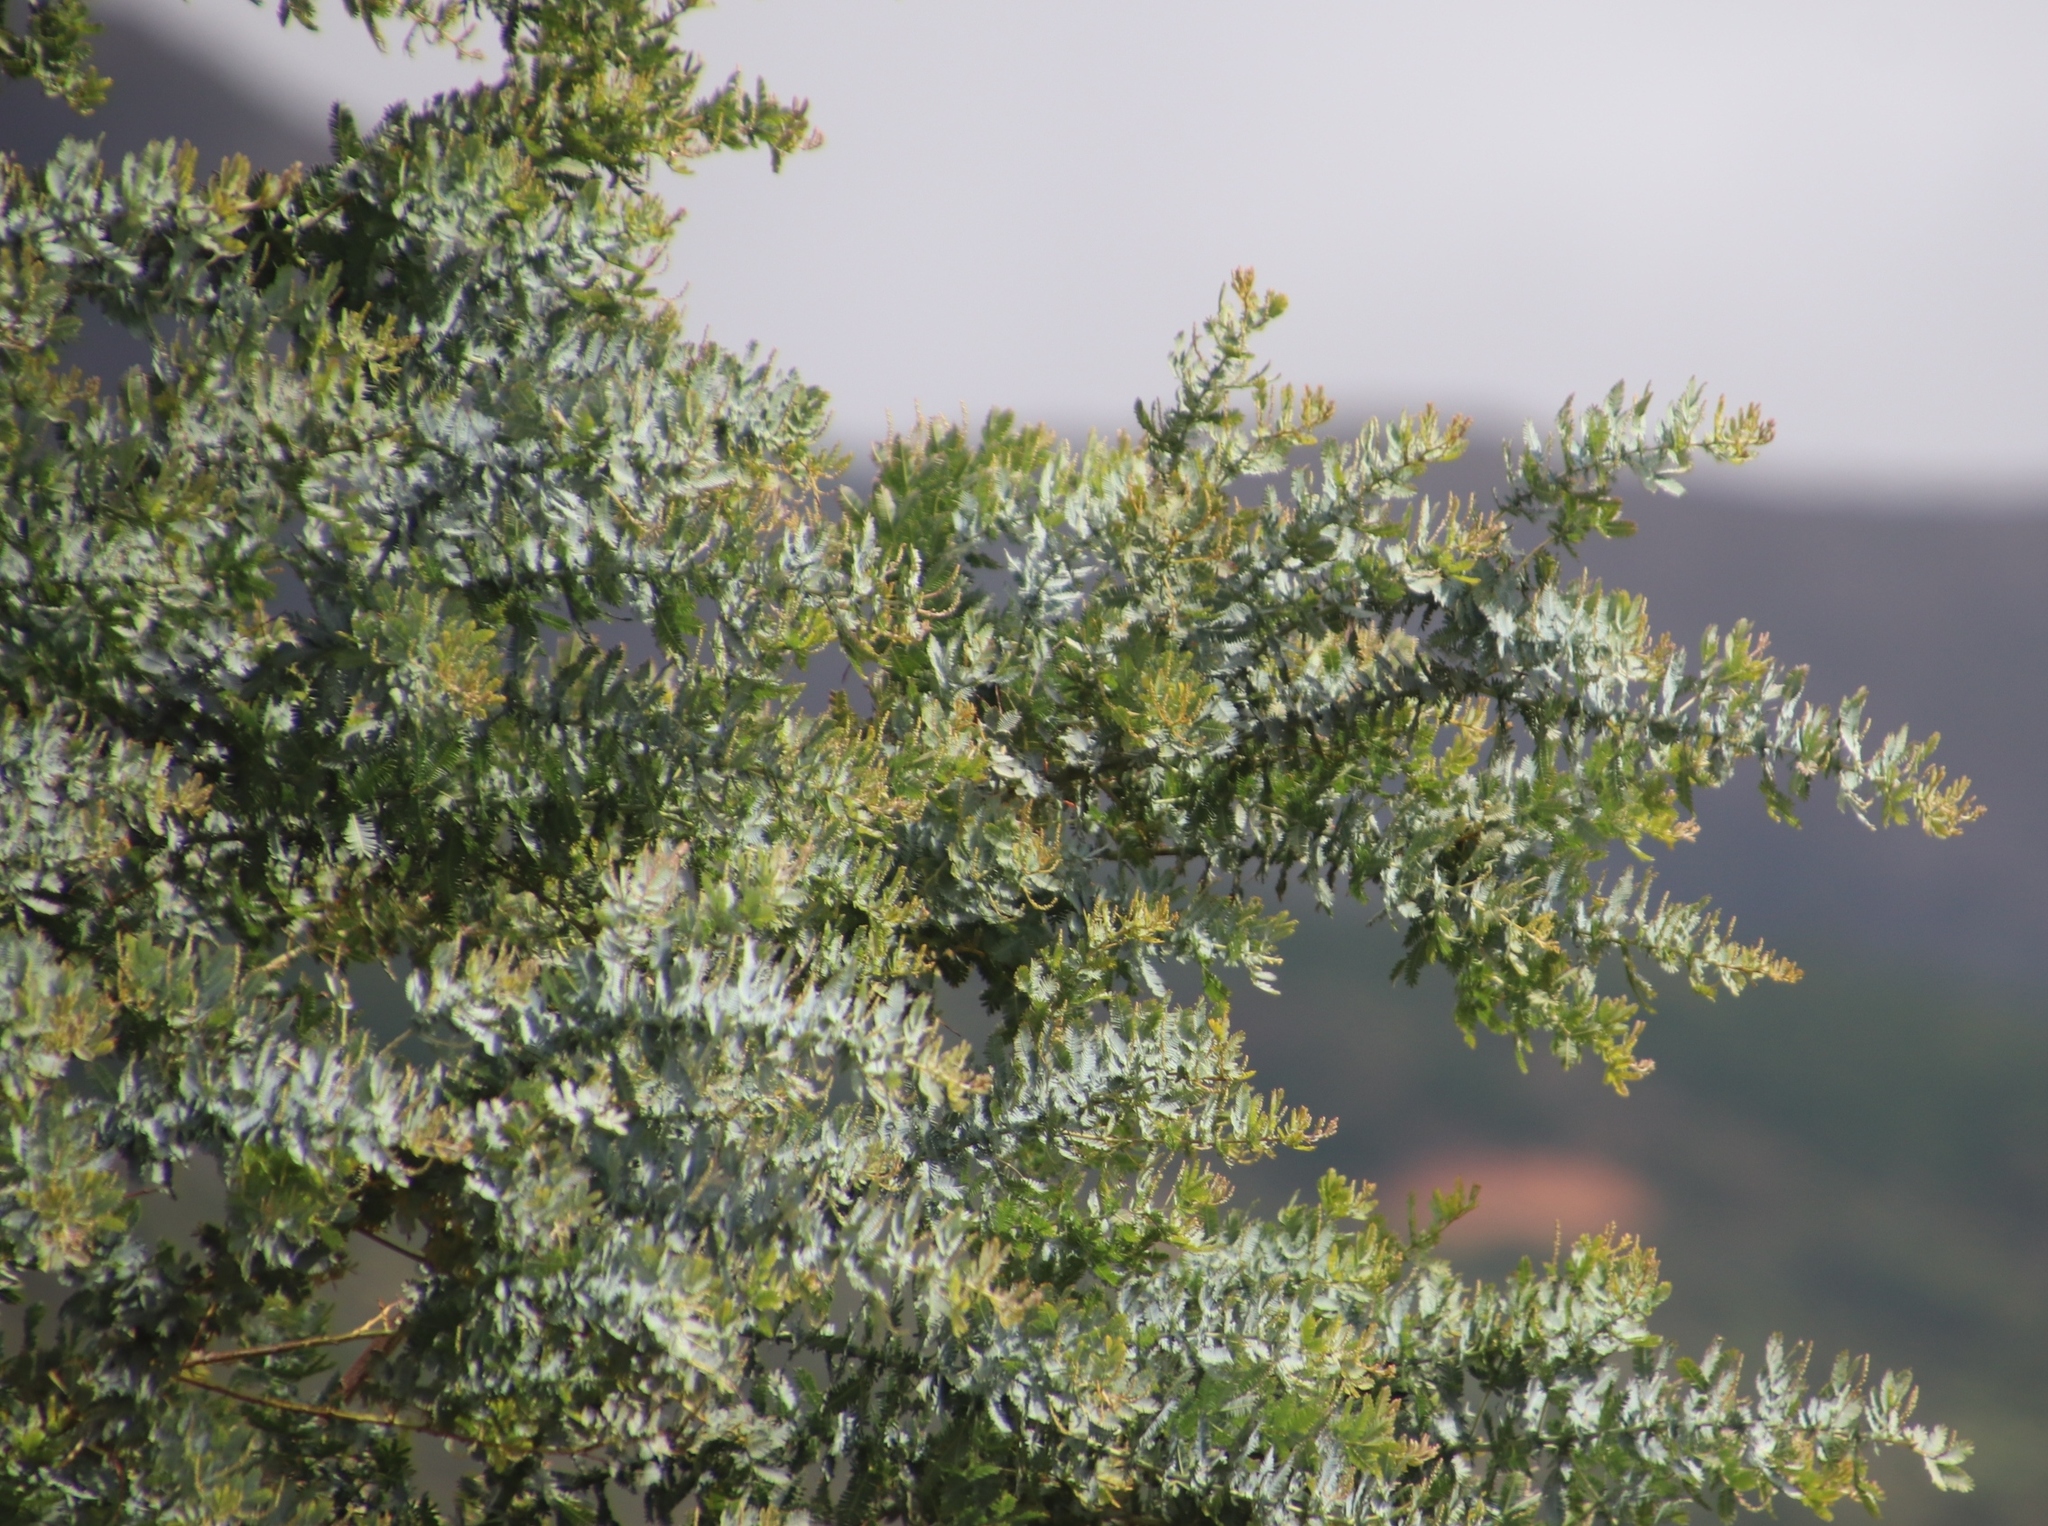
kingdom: Plantae
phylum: Tracheophyta
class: Magnoliopsida
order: Fabales
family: Fabaceae
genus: Acacia
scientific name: Acacia baileyana
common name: Cootamundra wattle
